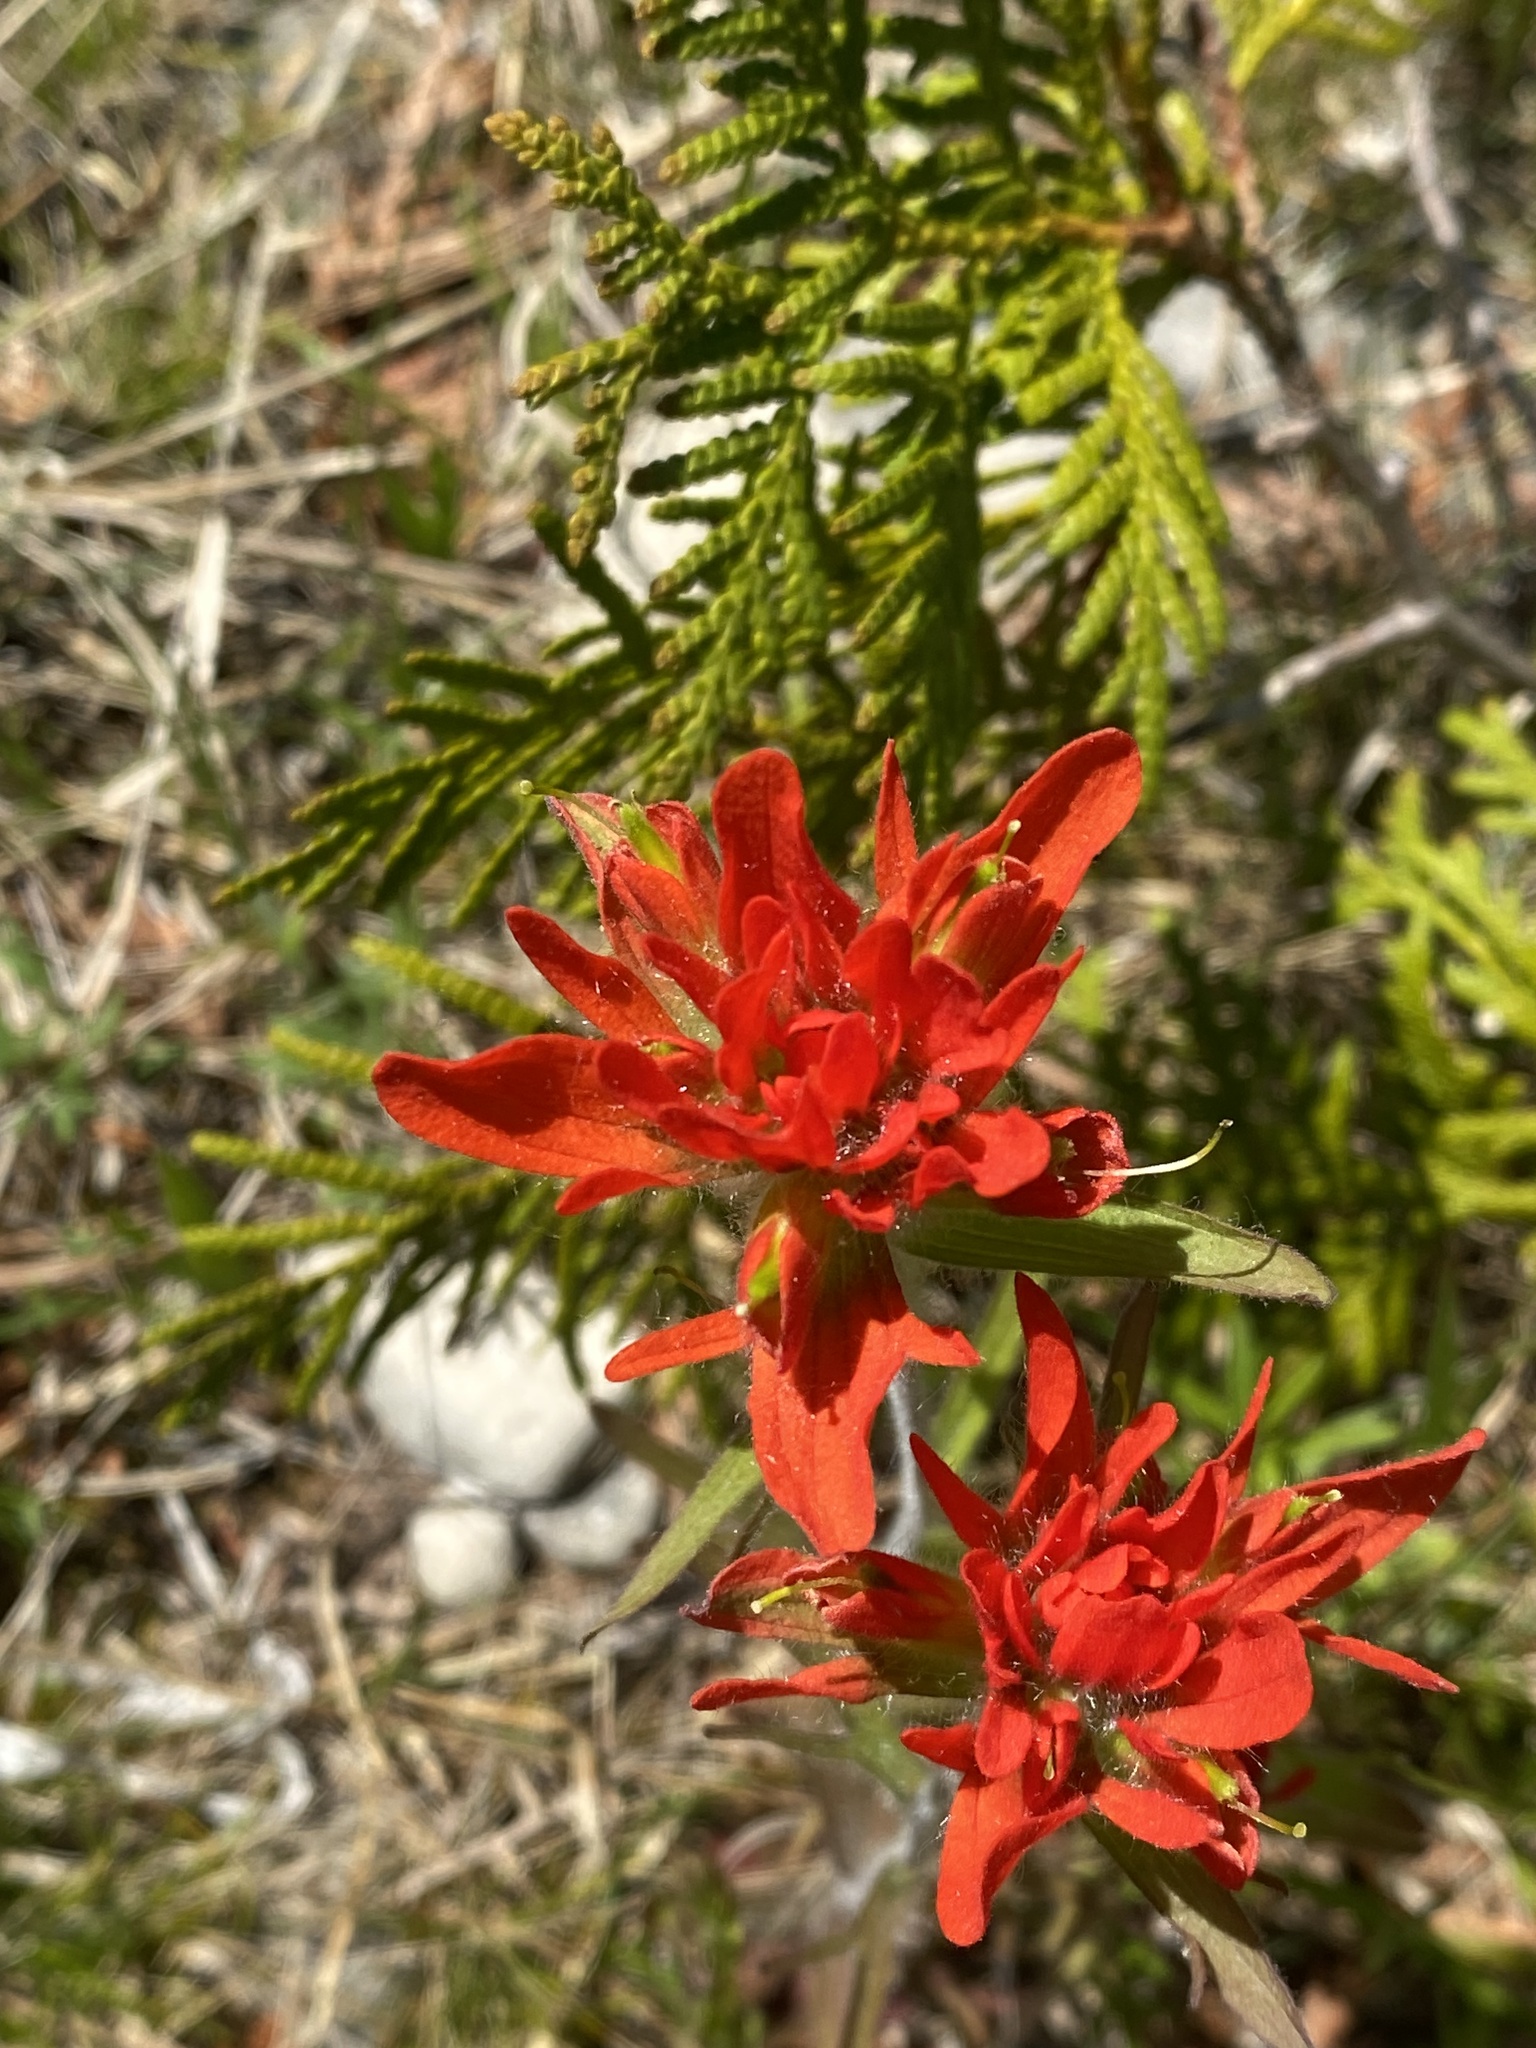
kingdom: Plantae
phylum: Tracheophyta
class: Magnoliopsida
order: Lamiales
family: Orobanchaceae
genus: Castilleja
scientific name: Castilleja coccinea
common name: Scarlet paintbrush
